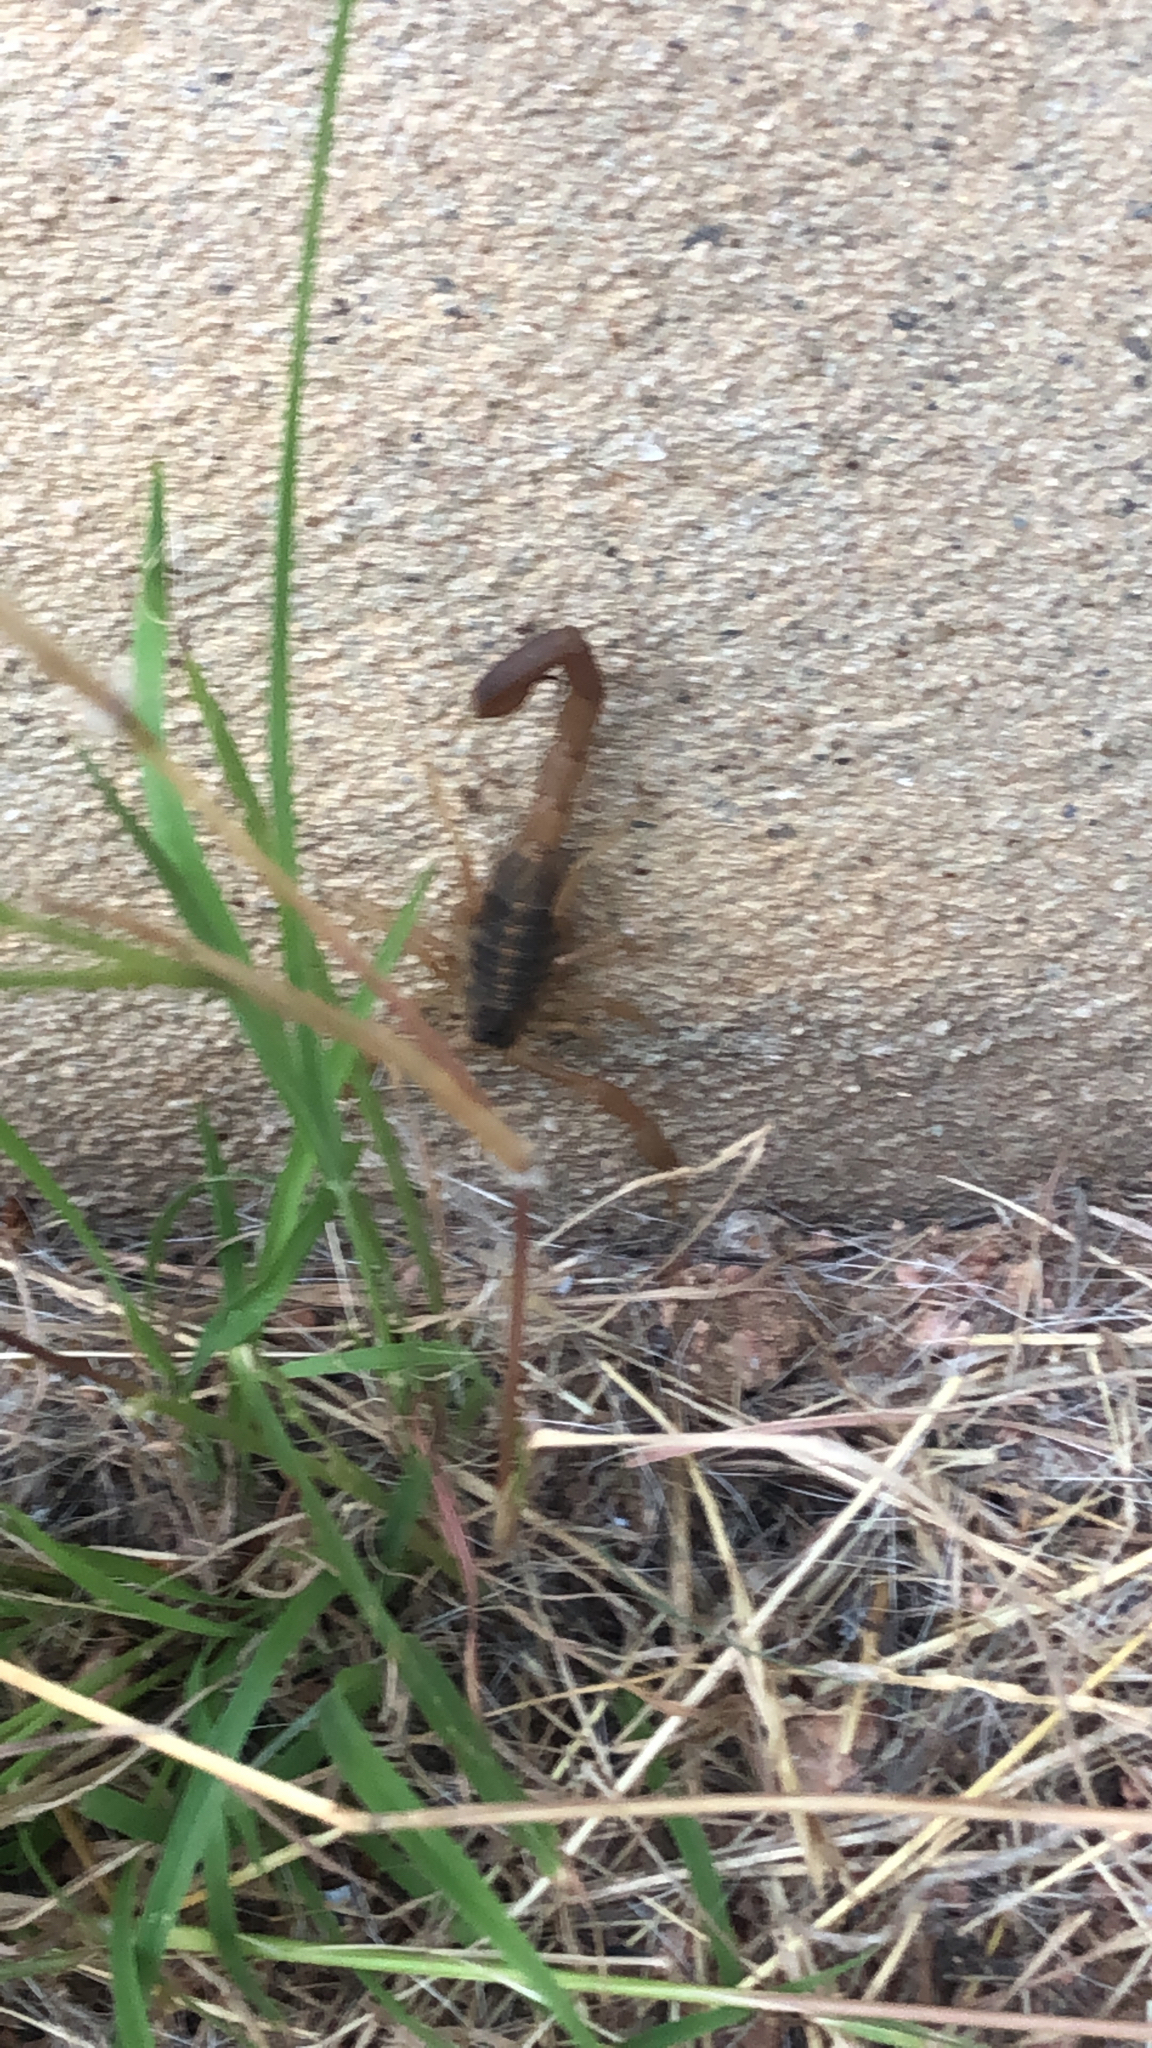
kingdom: Animalia
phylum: Arthropoda
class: Arachnida
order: Scorpiones
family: Buthidae
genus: Centruroides
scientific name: Centruroides vittatus
